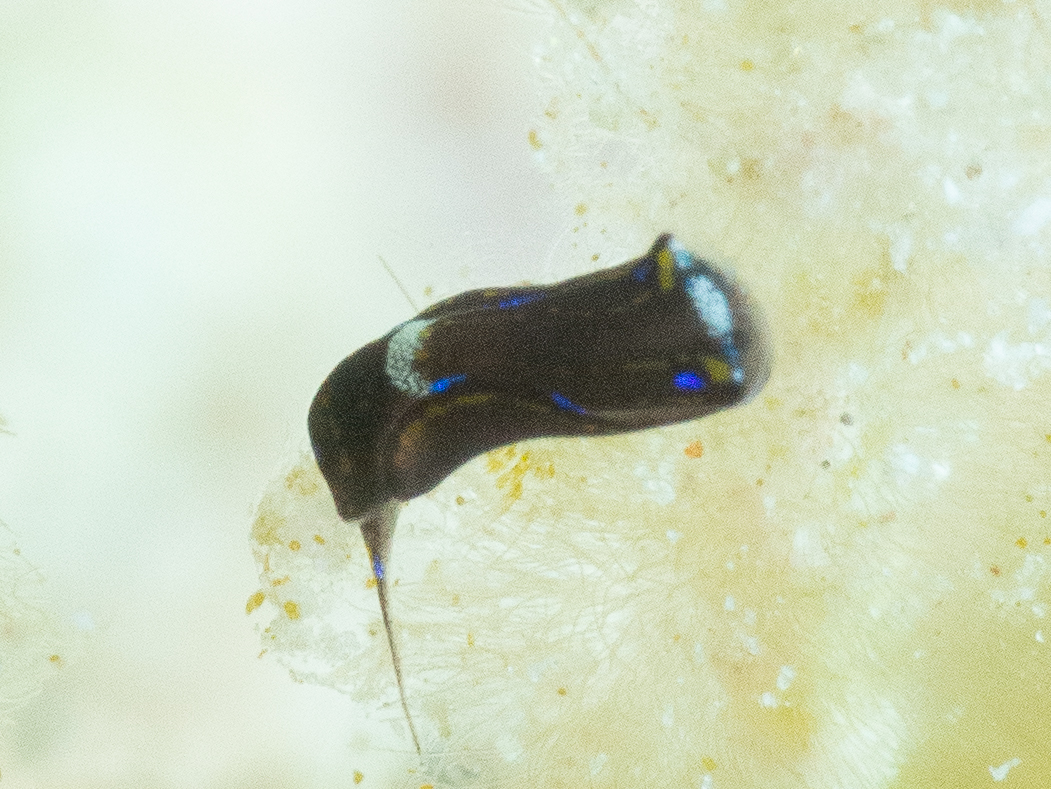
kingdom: Animalia
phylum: Mollusca
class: Gastropoda
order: Cephalaspidea
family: Aglajidae
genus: Chelidonura
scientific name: Chelidonura cubana
